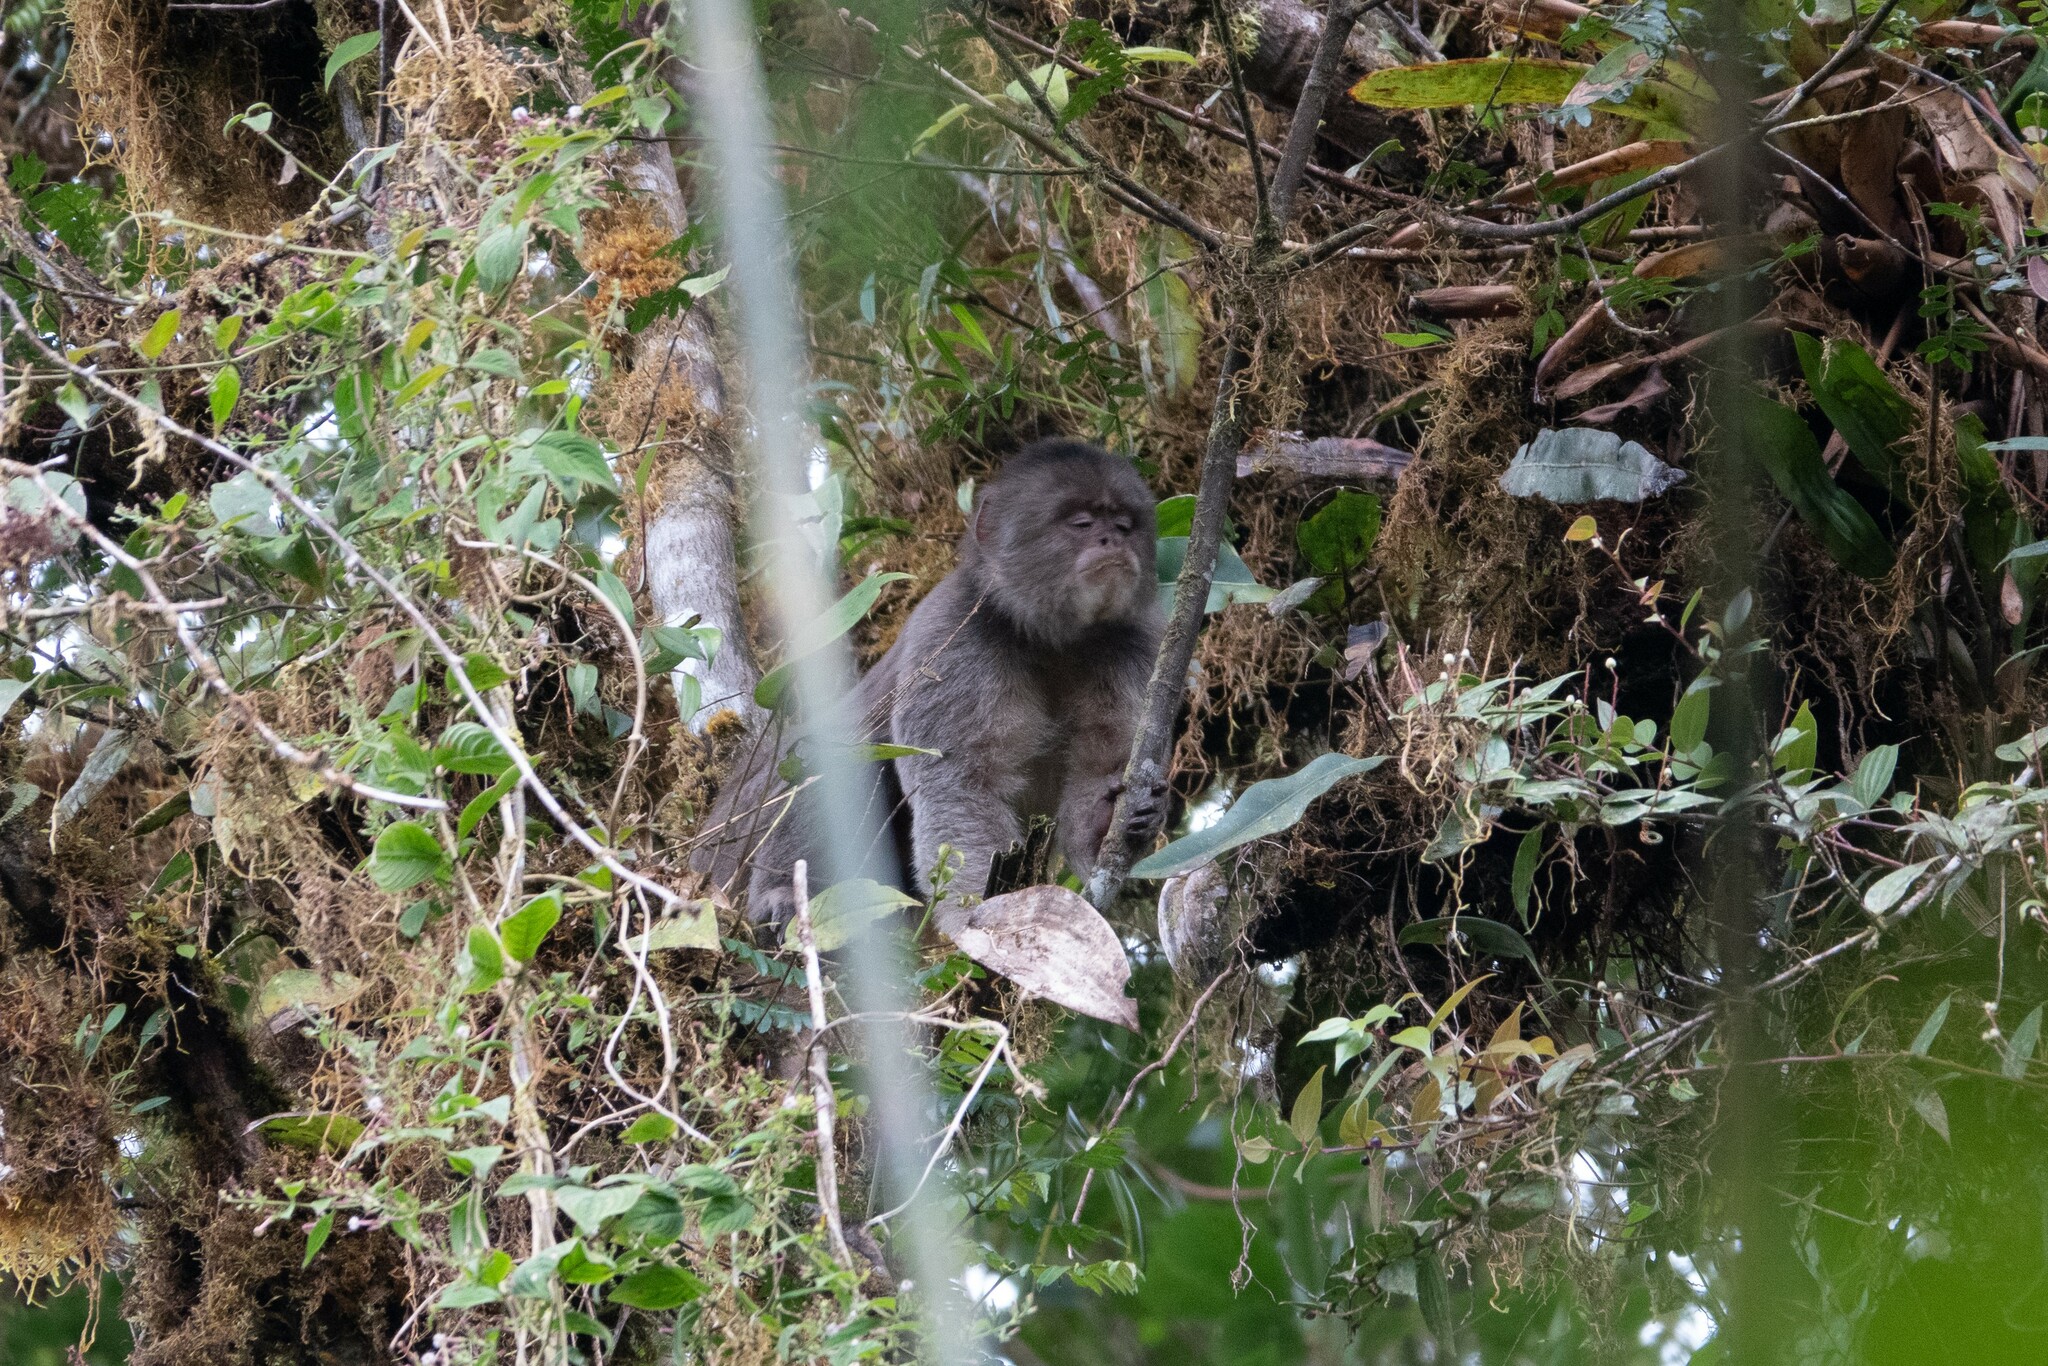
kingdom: Animalia
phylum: Chordata
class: Mammalia
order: Primates
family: Cebidae
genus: Cebus
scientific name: Cebus yuracus
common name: Peruvian white-fronted capuchin
